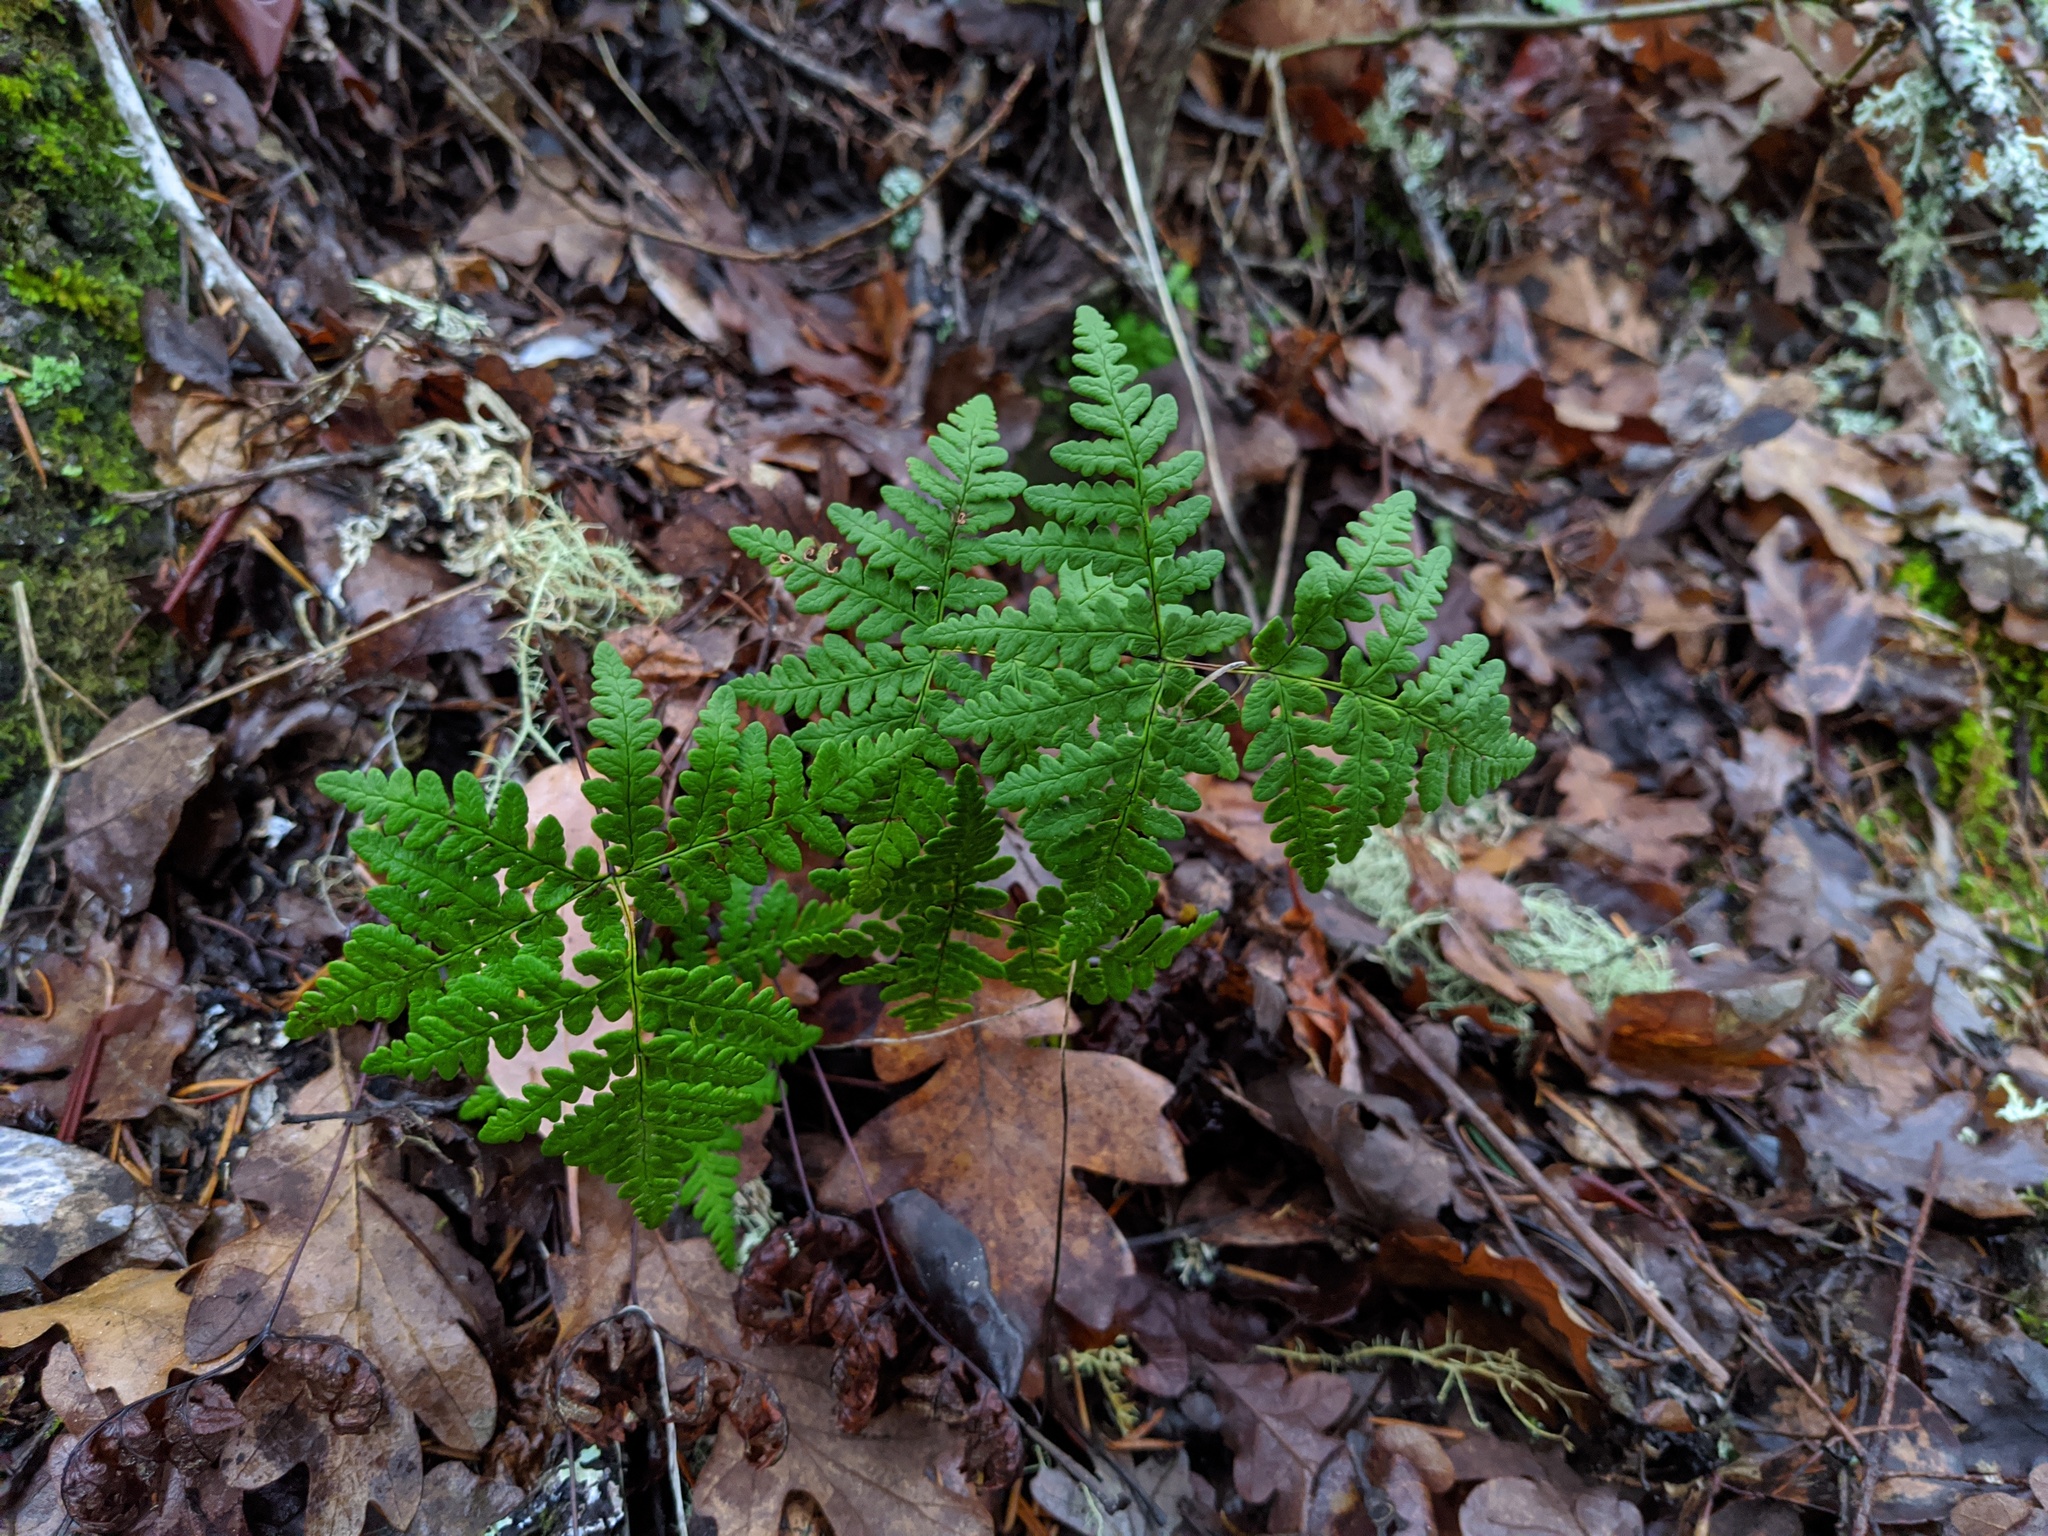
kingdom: Plantae
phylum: Tracheophyta
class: Polypodiopsida
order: Polypodiales
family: Pteridaceae
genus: Pentagramma
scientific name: Pentagramma triangularis
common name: Gold fern
